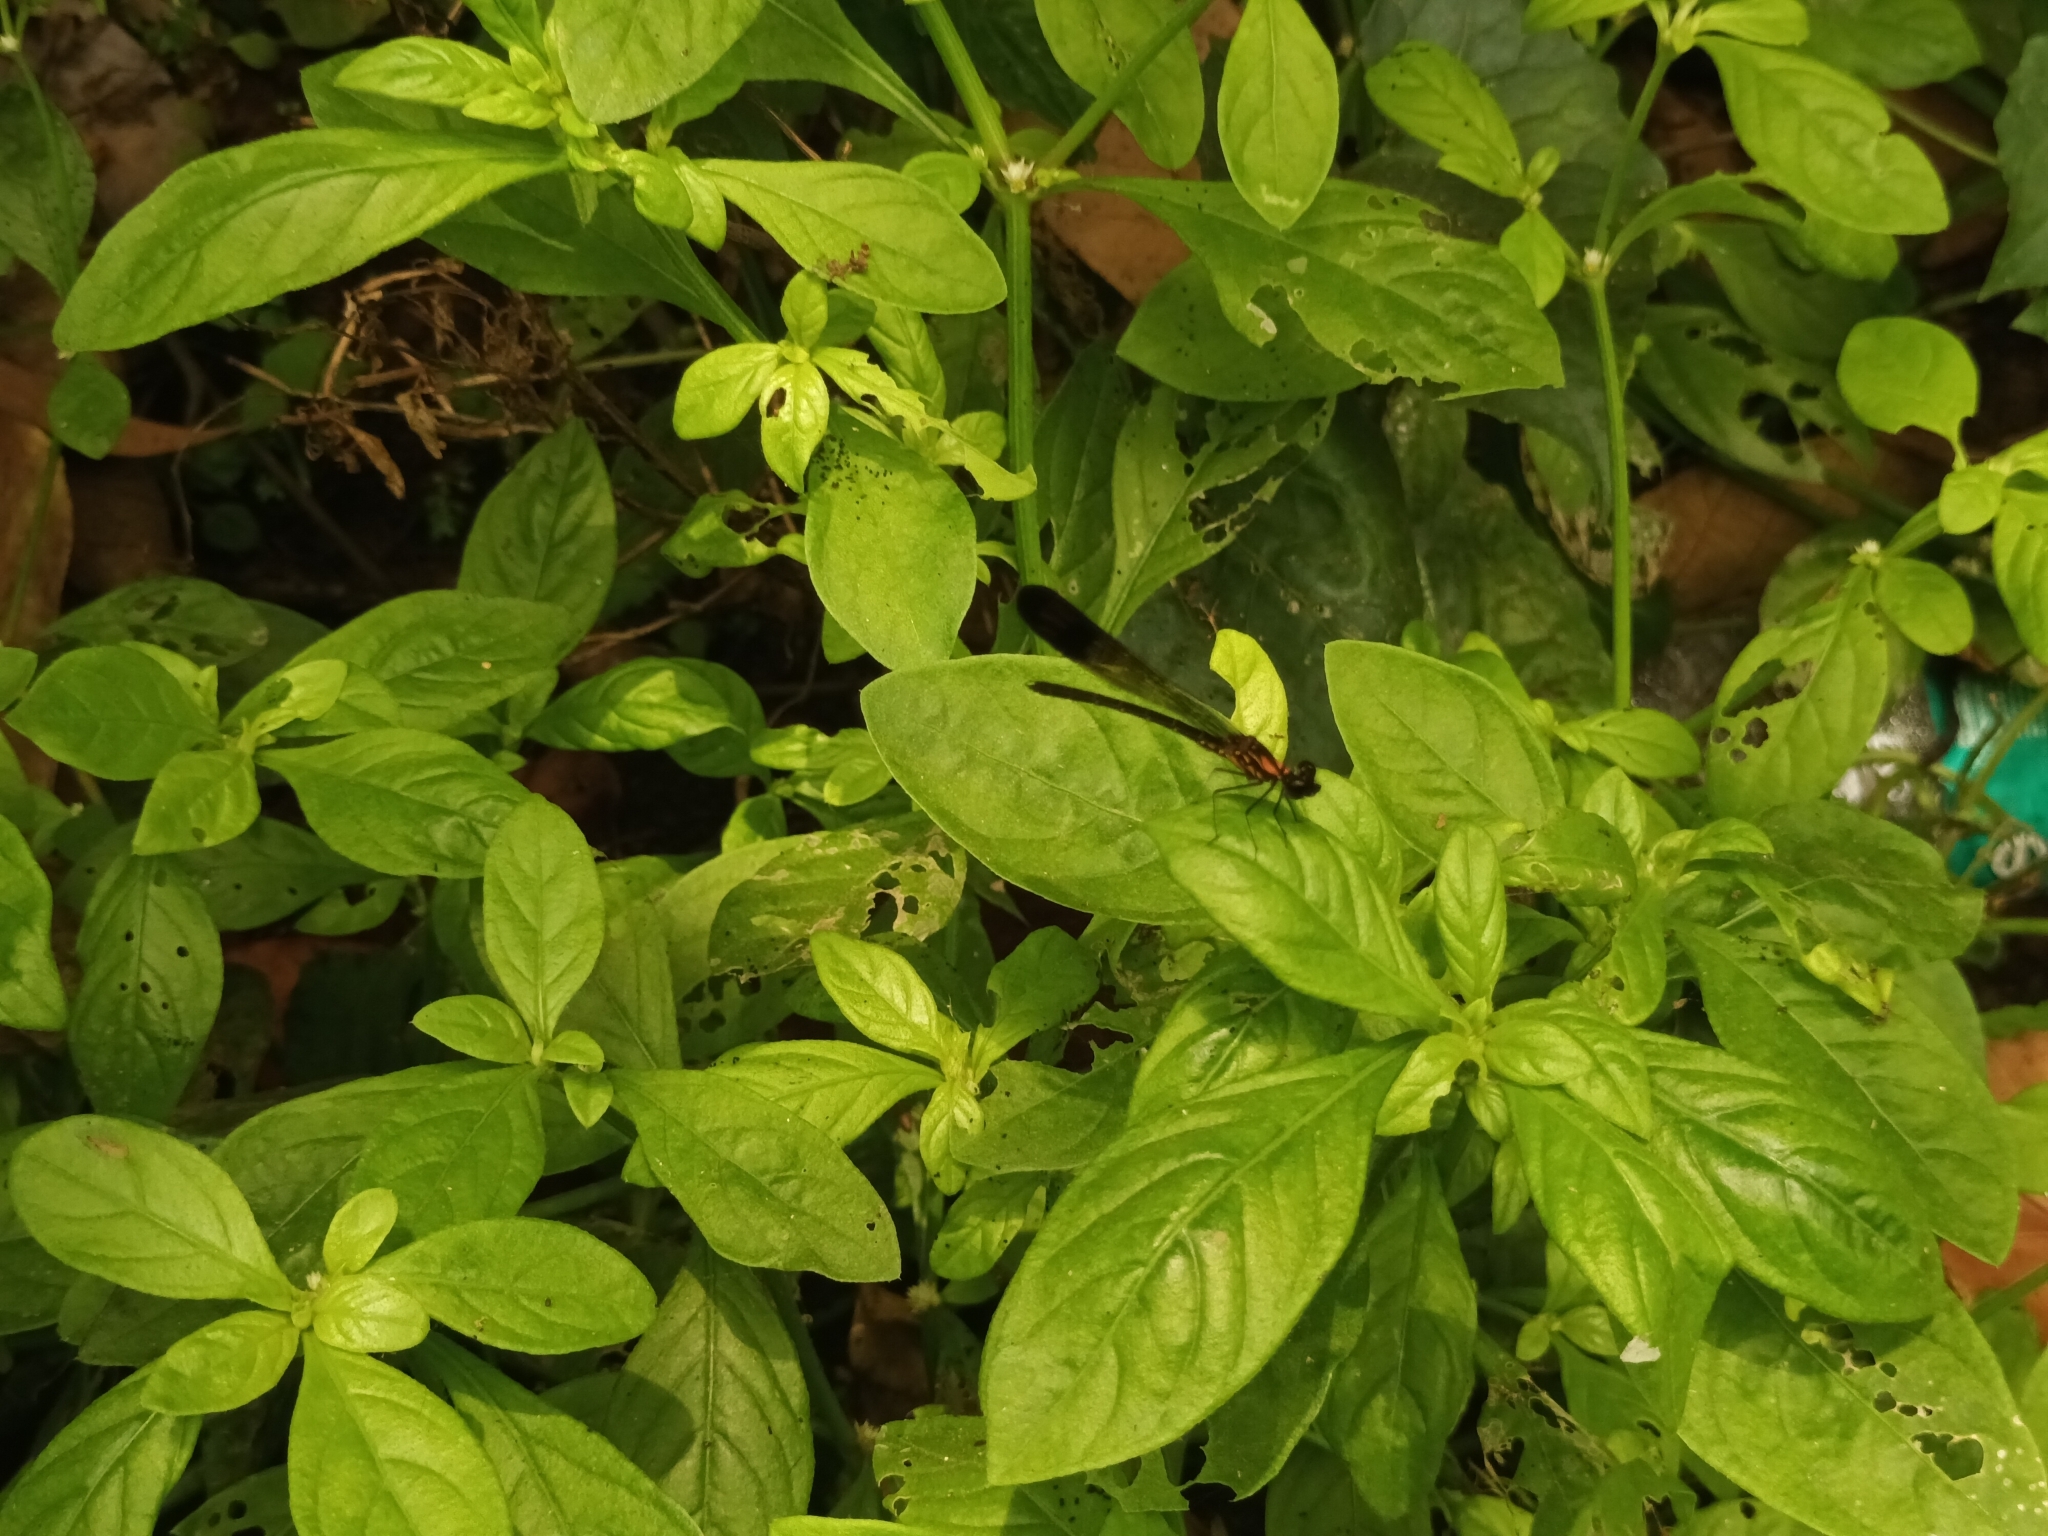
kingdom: Animalia
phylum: Arthropoda
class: Insecta
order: Odonata
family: Chlorocyphidae
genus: Heliocypha
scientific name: Heliocypha bisignata
